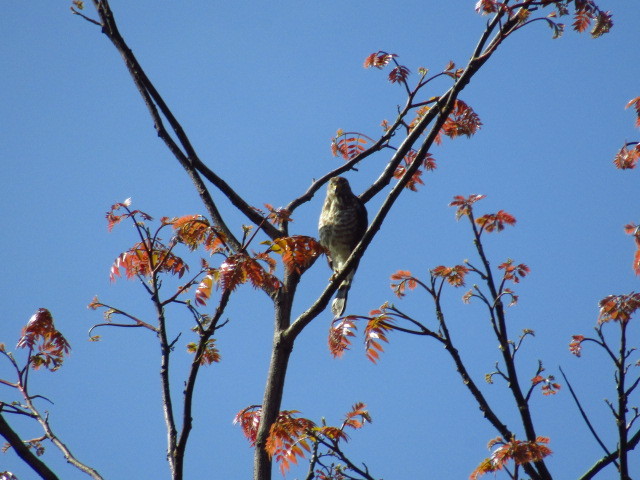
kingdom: Animalia
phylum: Chordata
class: Aves
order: Accipitriformes
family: Accipitridae
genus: Rupornis
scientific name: Rupornis magnirostris
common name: Roadside hawk
